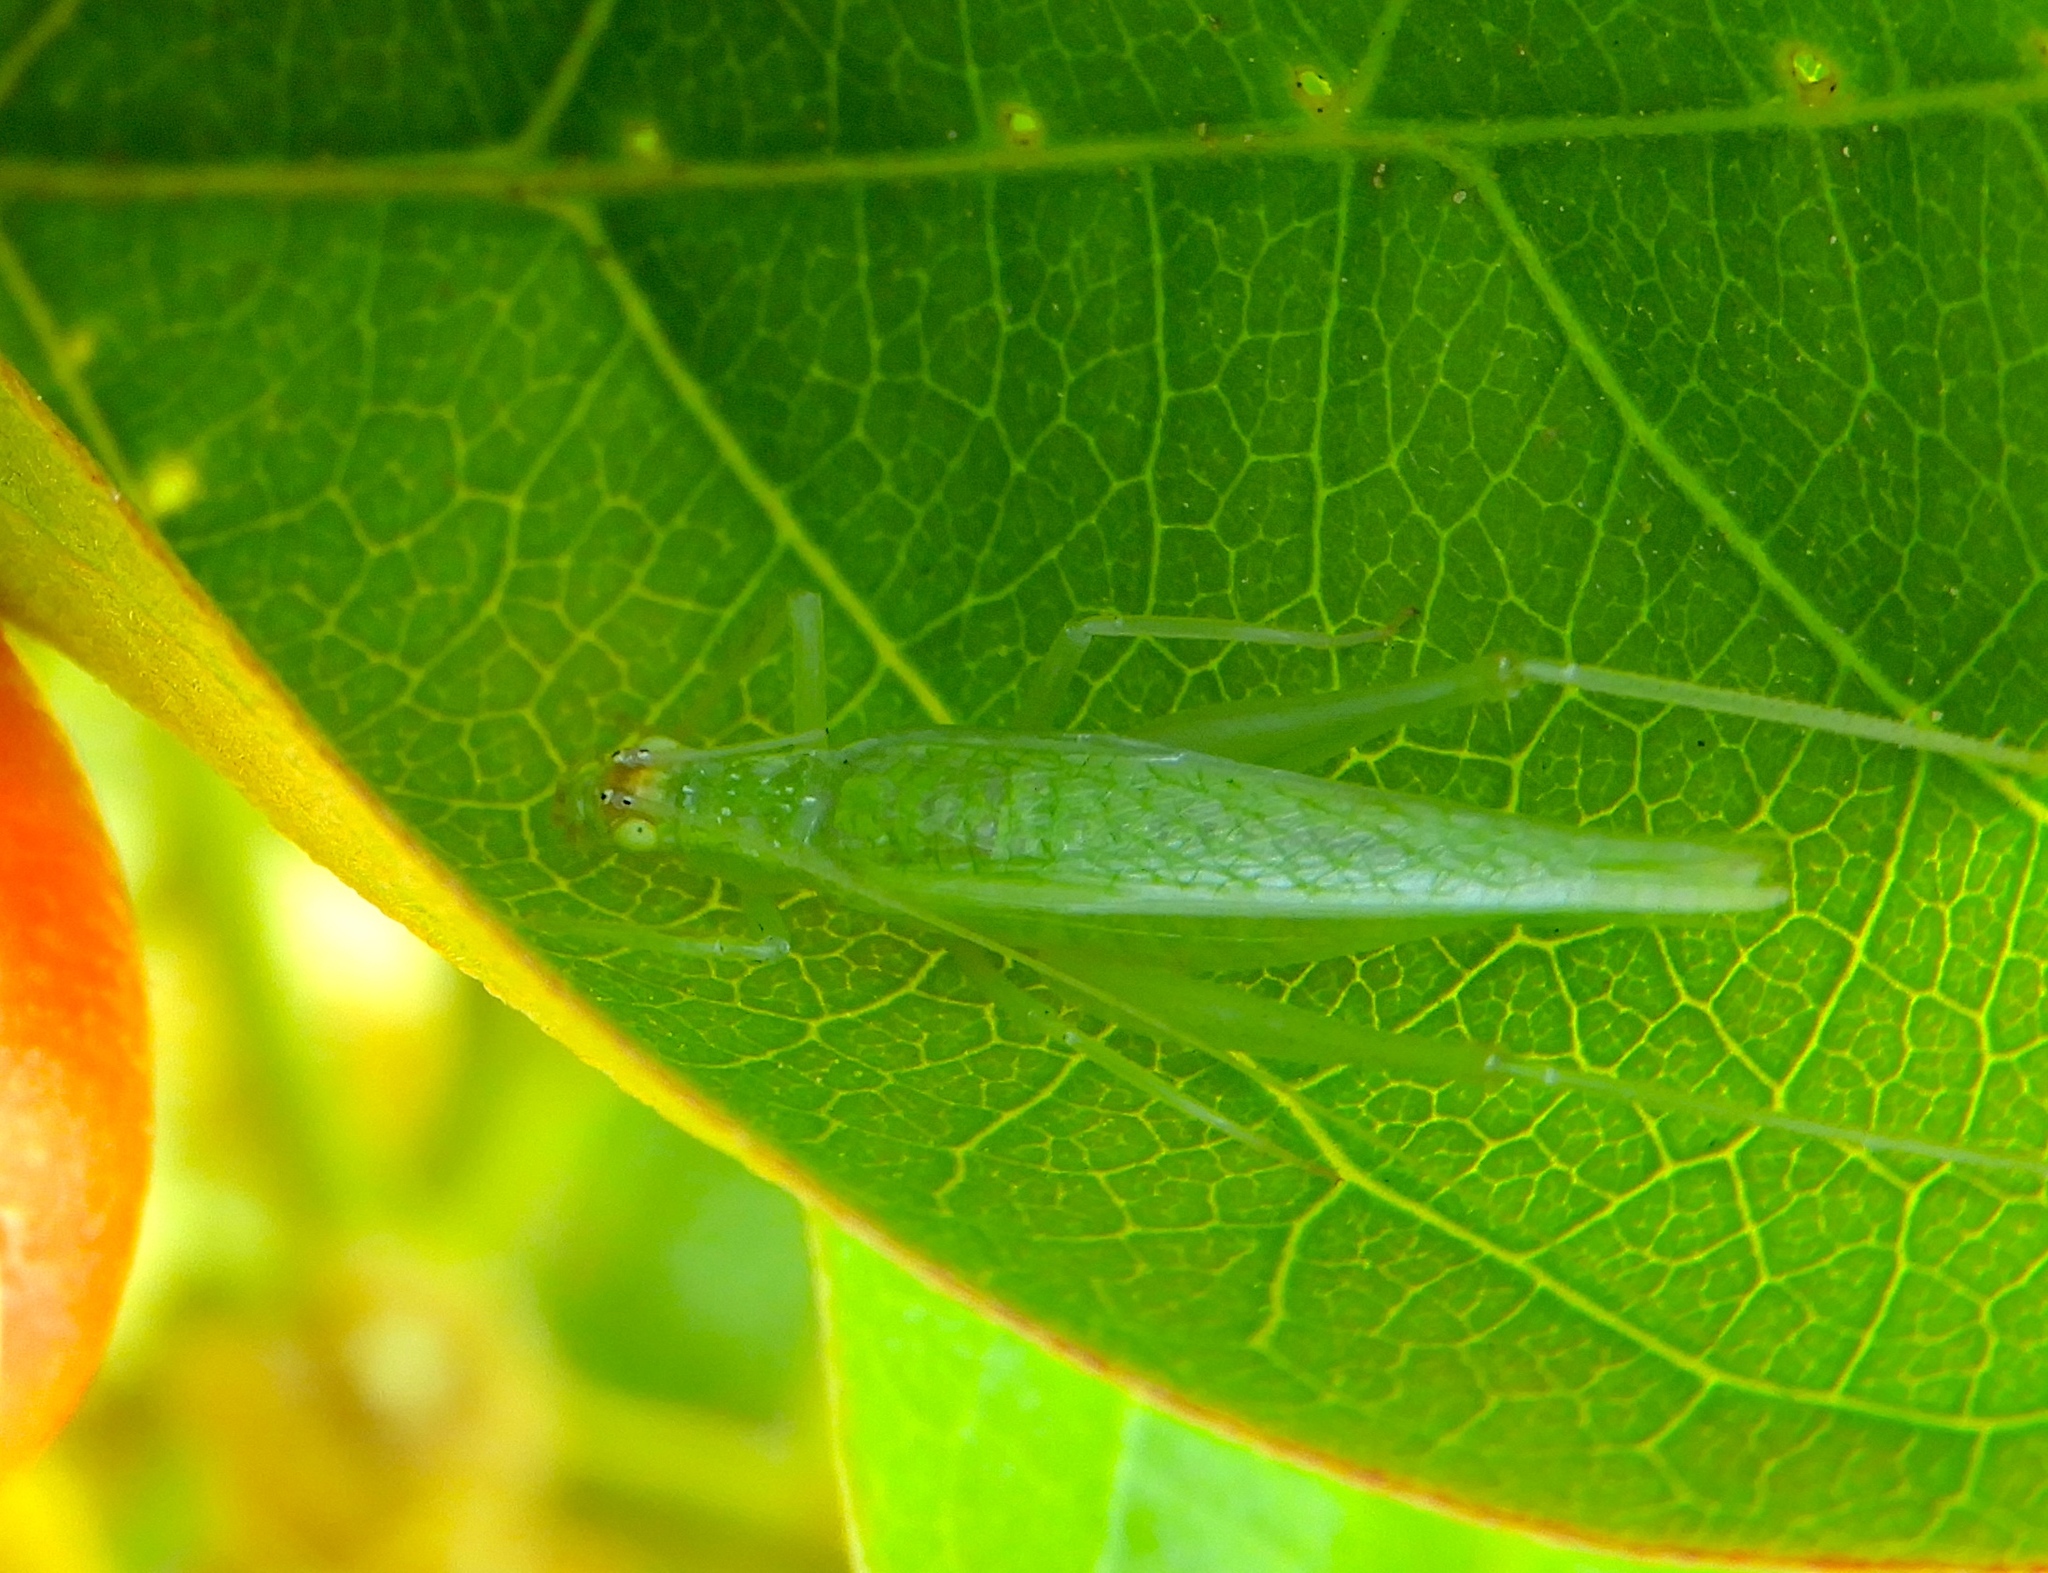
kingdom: Animalia
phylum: Arthropoda
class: Insecta
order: Orthoptera
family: Gryllidae
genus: Oecanthus
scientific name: Oecanthus
